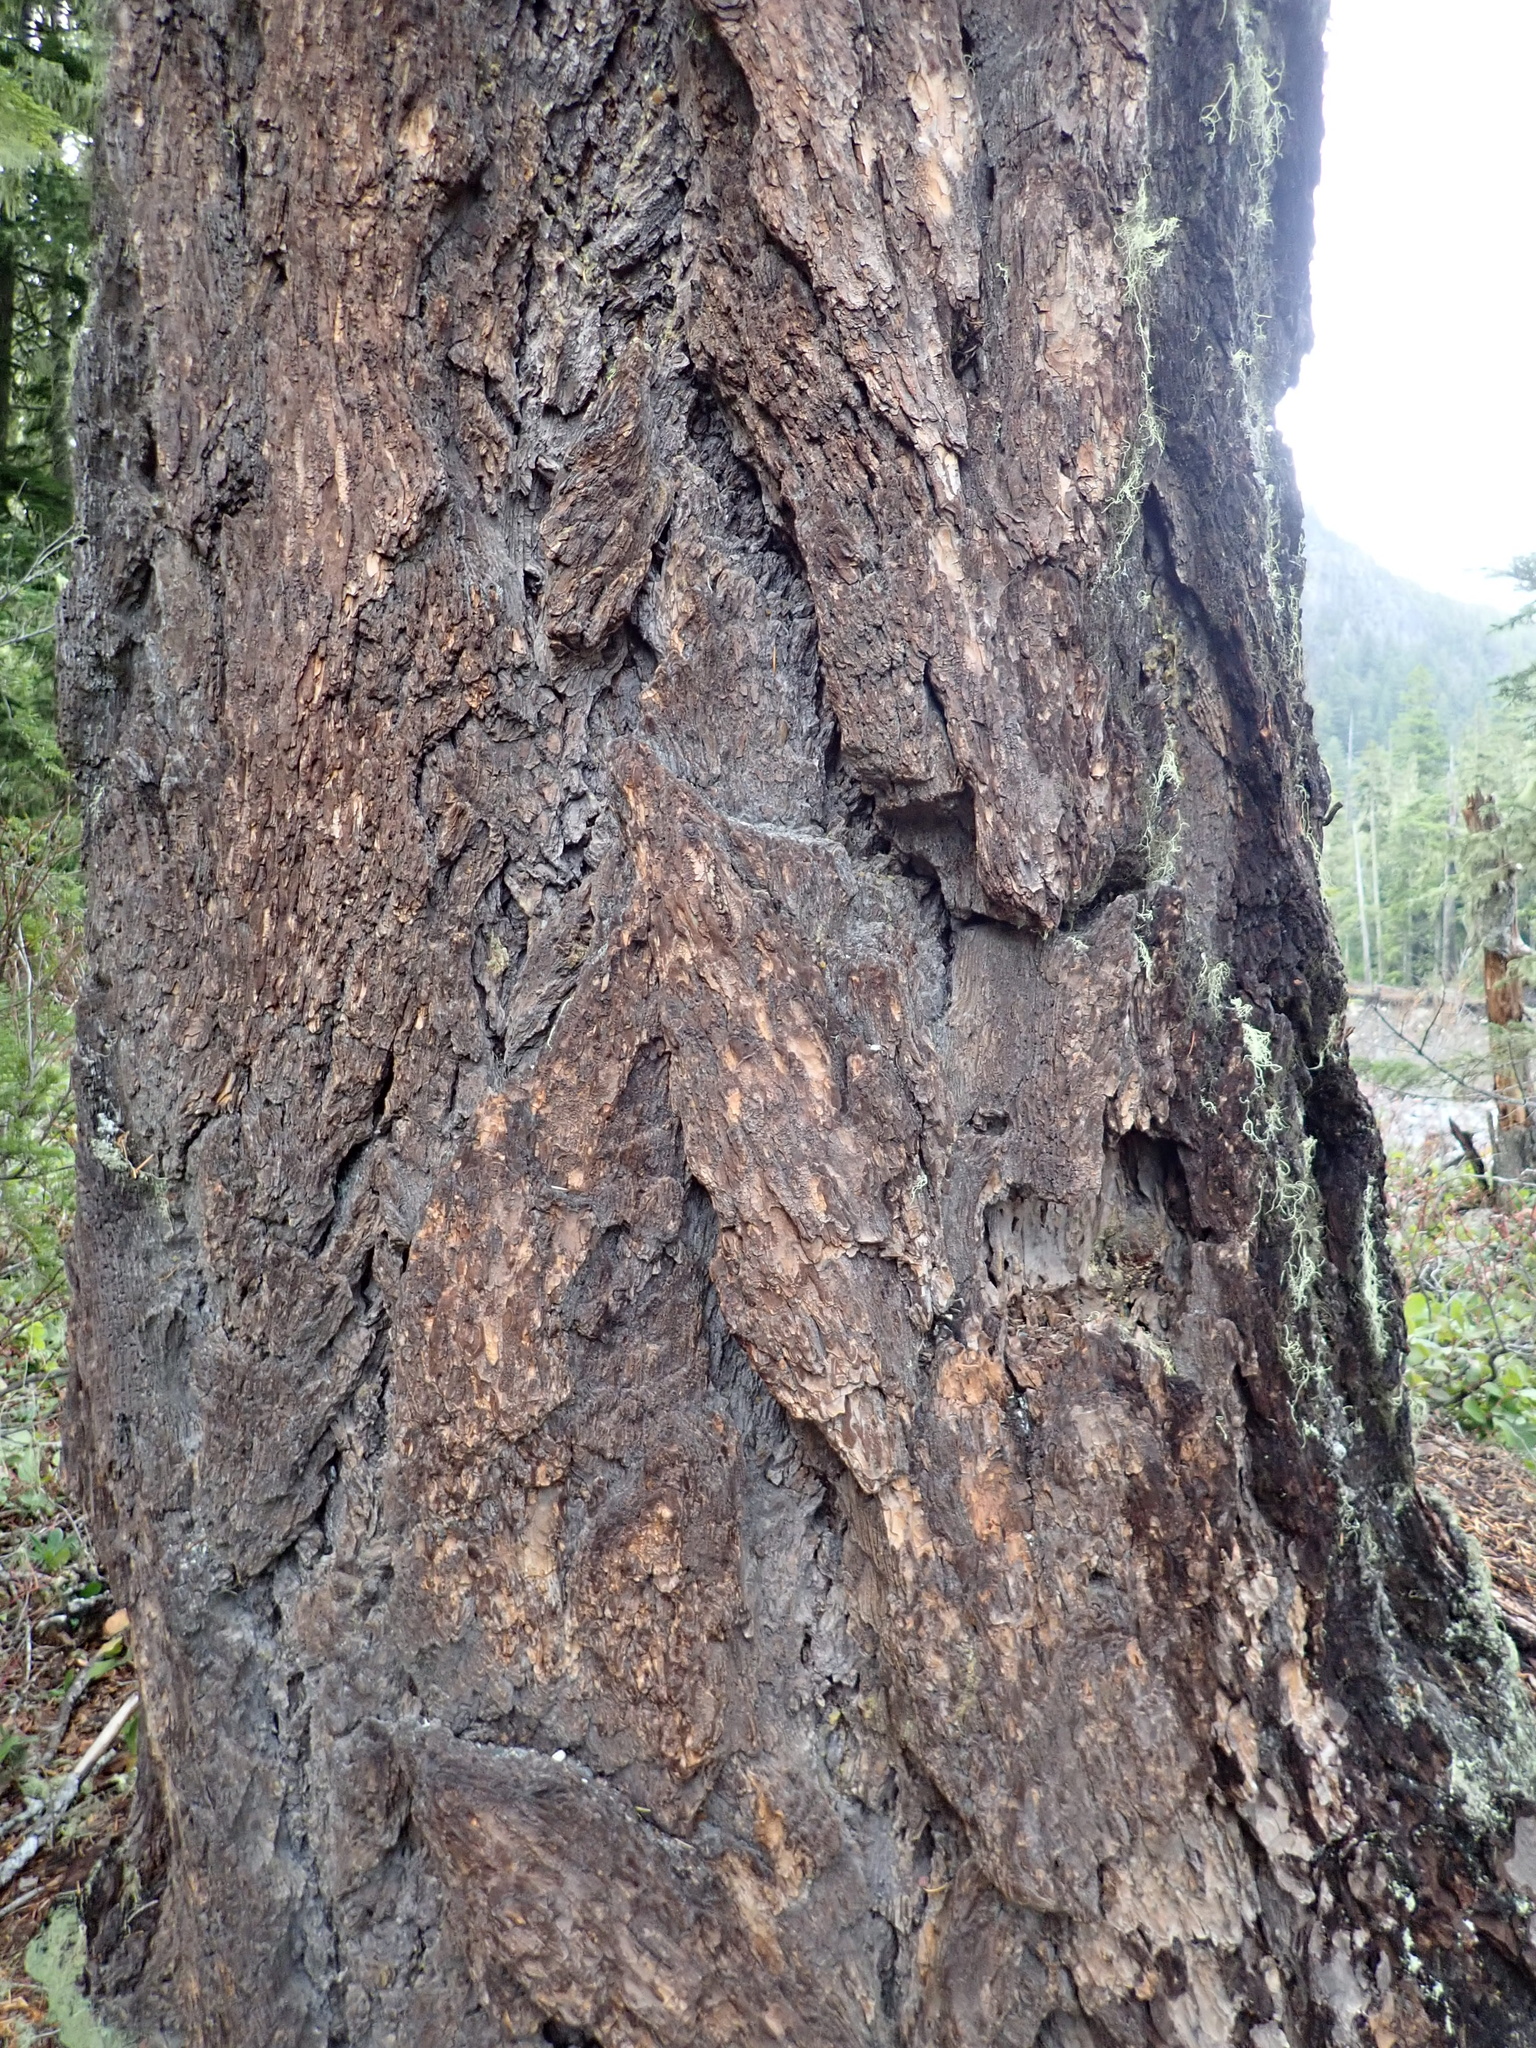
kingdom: Plantae
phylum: Tracheophyta
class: Pinopsida
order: Pinales
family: Pinaceae
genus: Pseudotsuga
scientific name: Pseudotsuga menziesii
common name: Douglas fir
